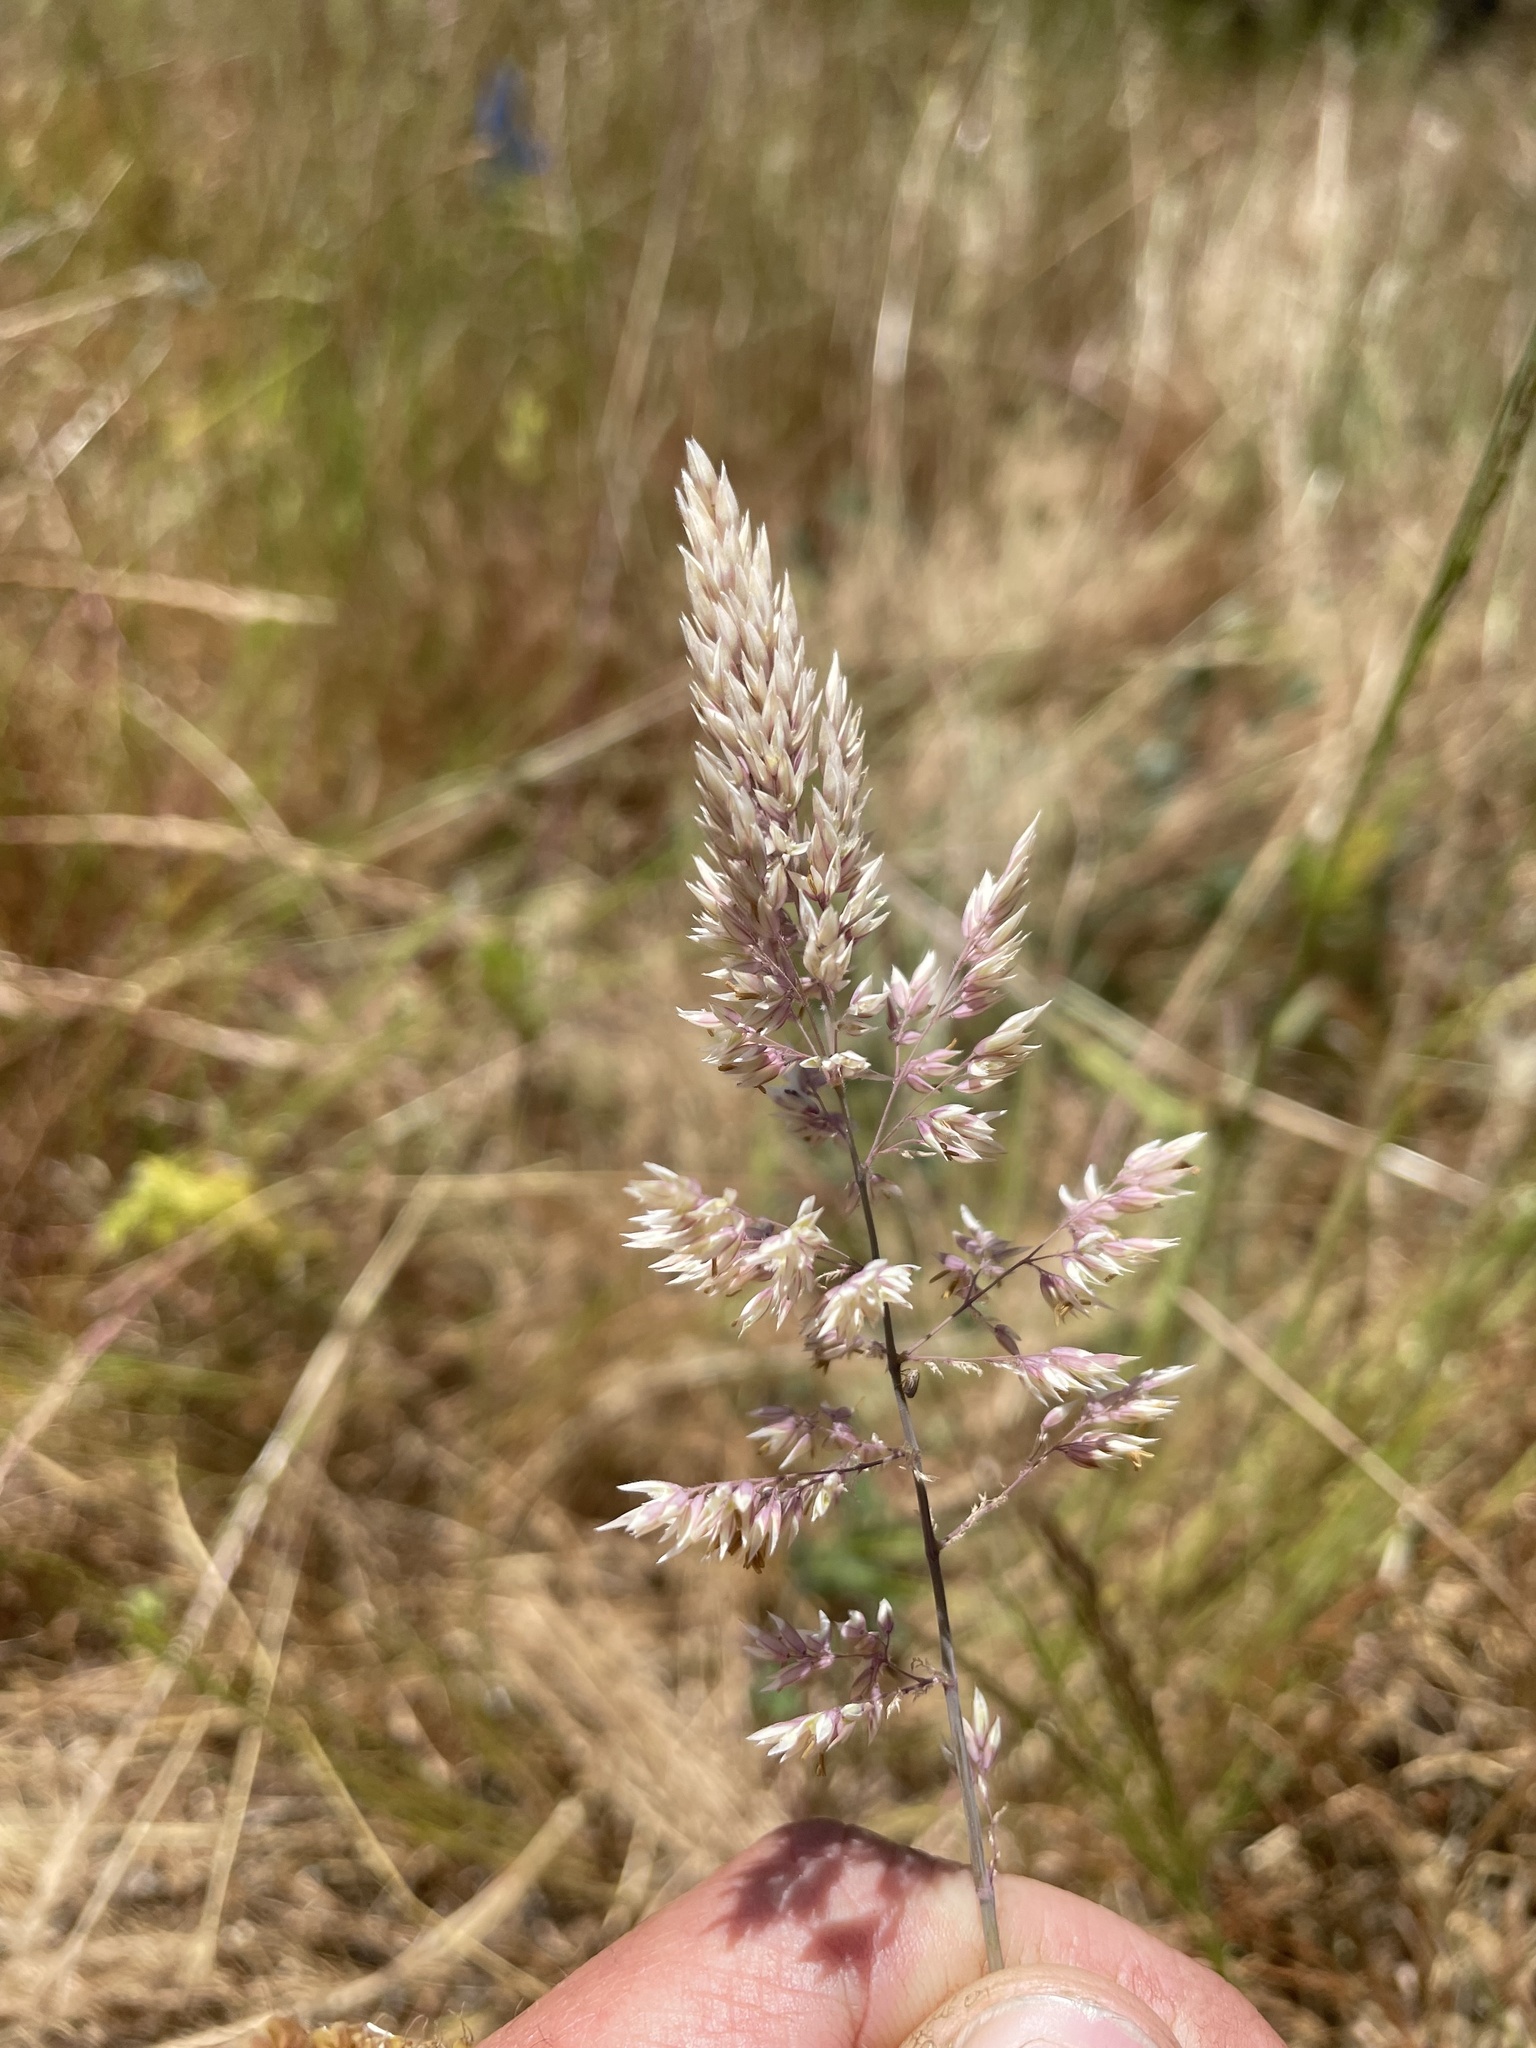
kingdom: Plantae
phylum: Tracheophyta
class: Liliopsida
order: Poales
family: Poaceae
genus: Holcus
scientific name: Holcus lanatus
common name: Yorkshire-fog
